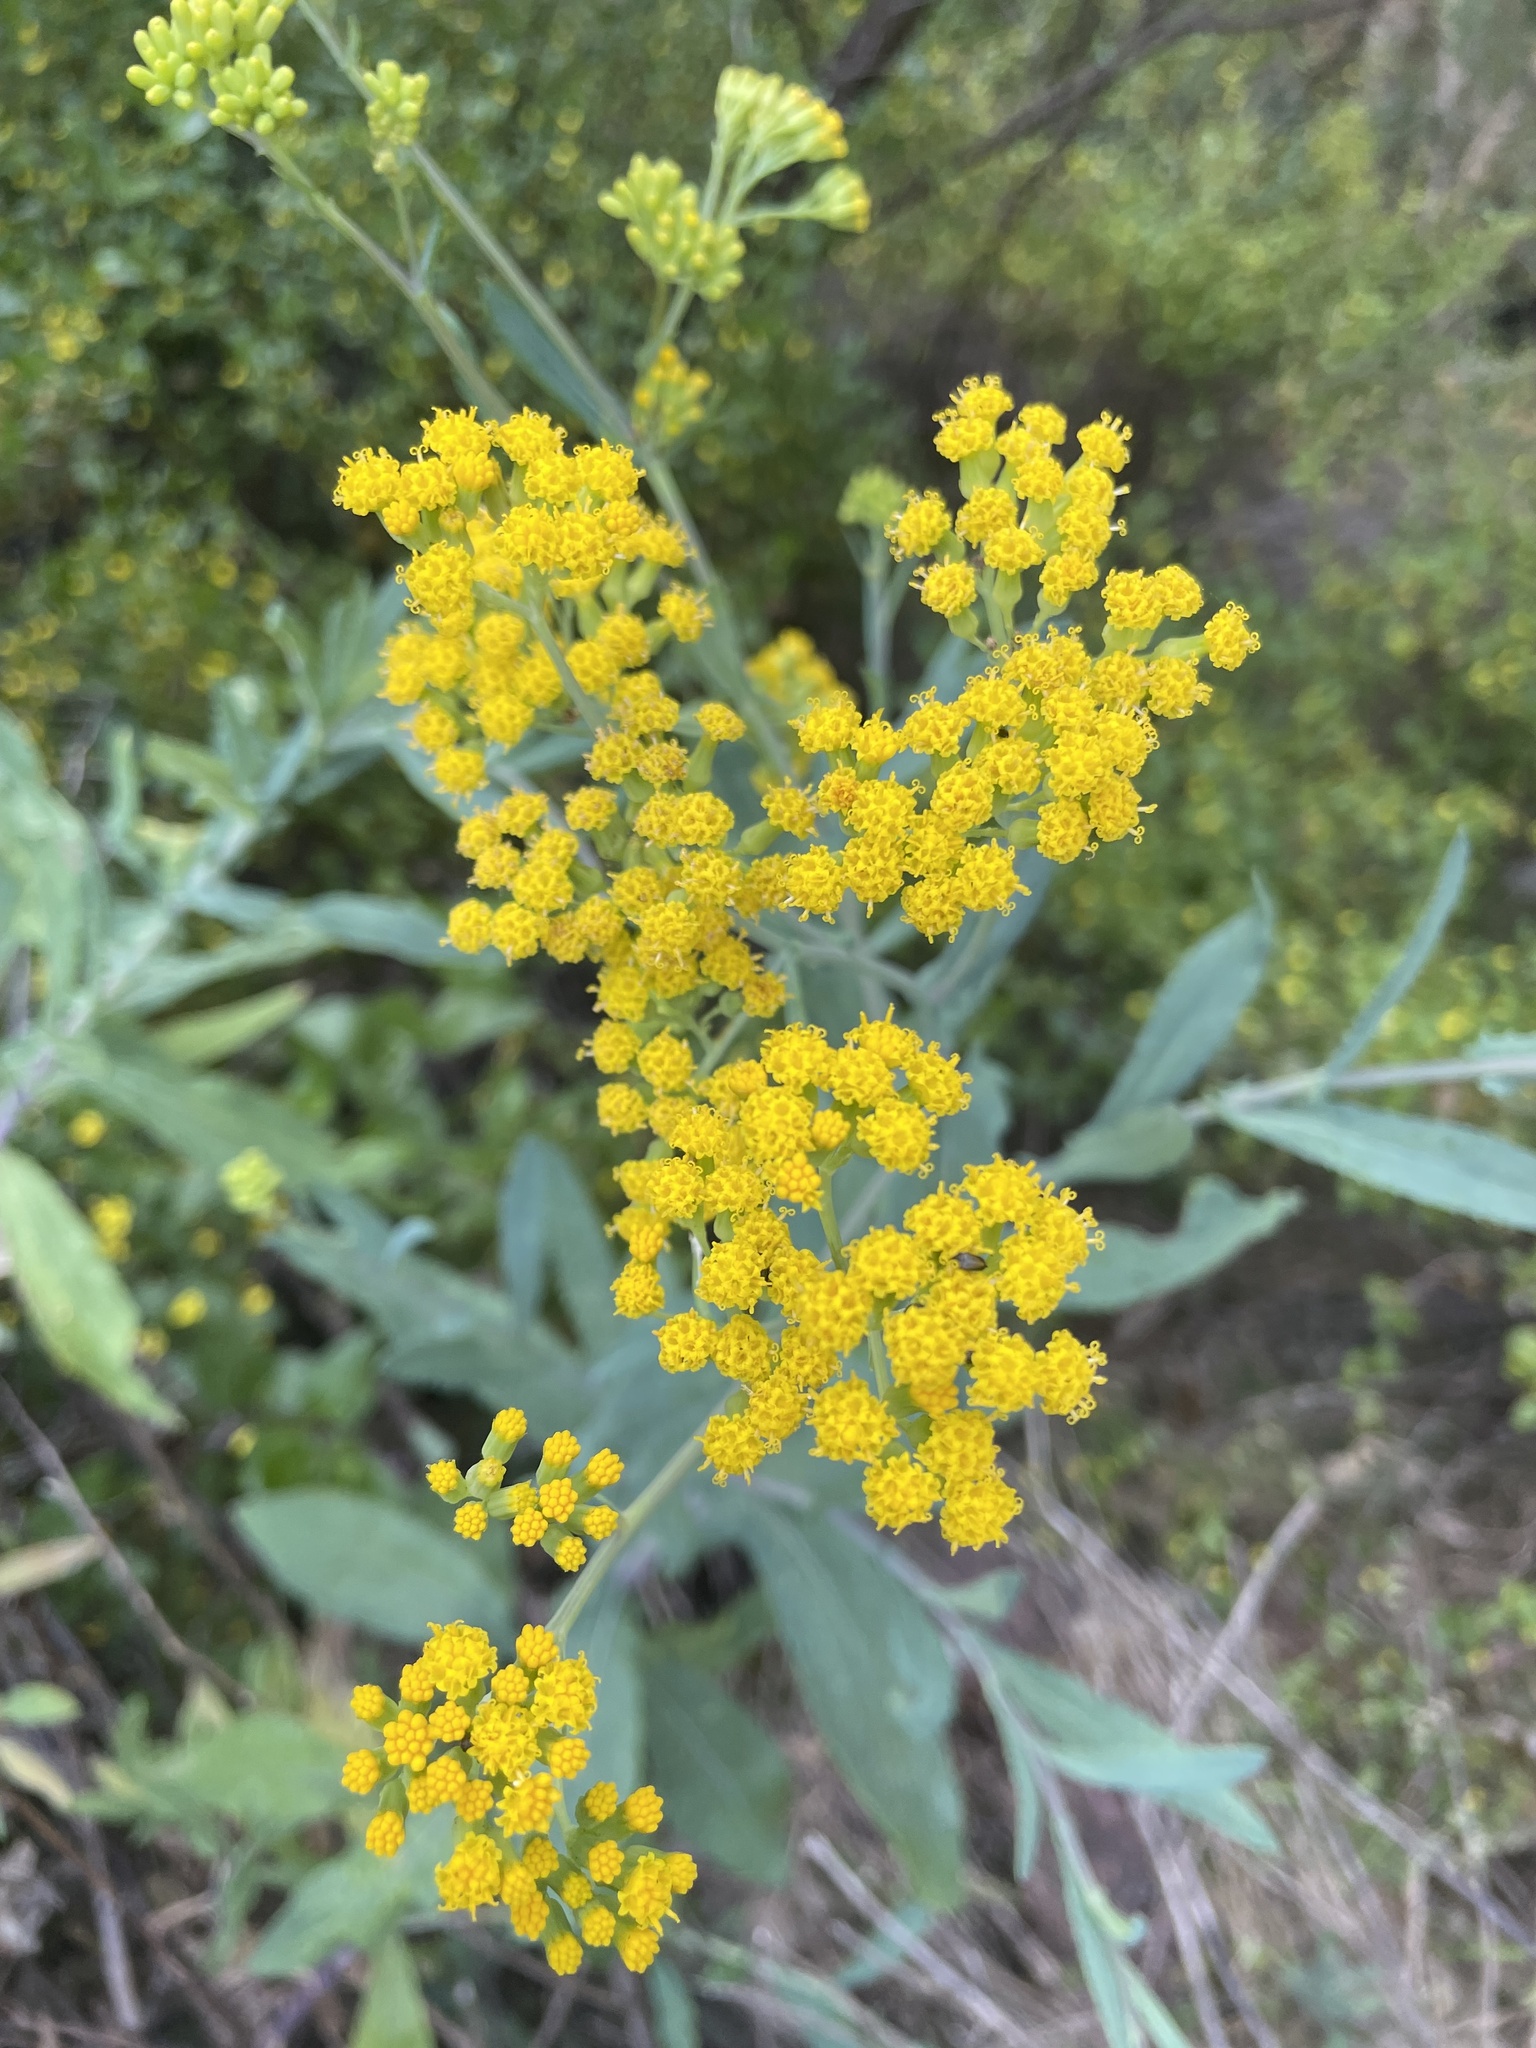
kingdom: Plantae
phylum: Tracheophyta
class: Magnoliopsida
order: Asterales
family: Asteraceae
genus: Senecio
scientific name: Senecio odoratus
